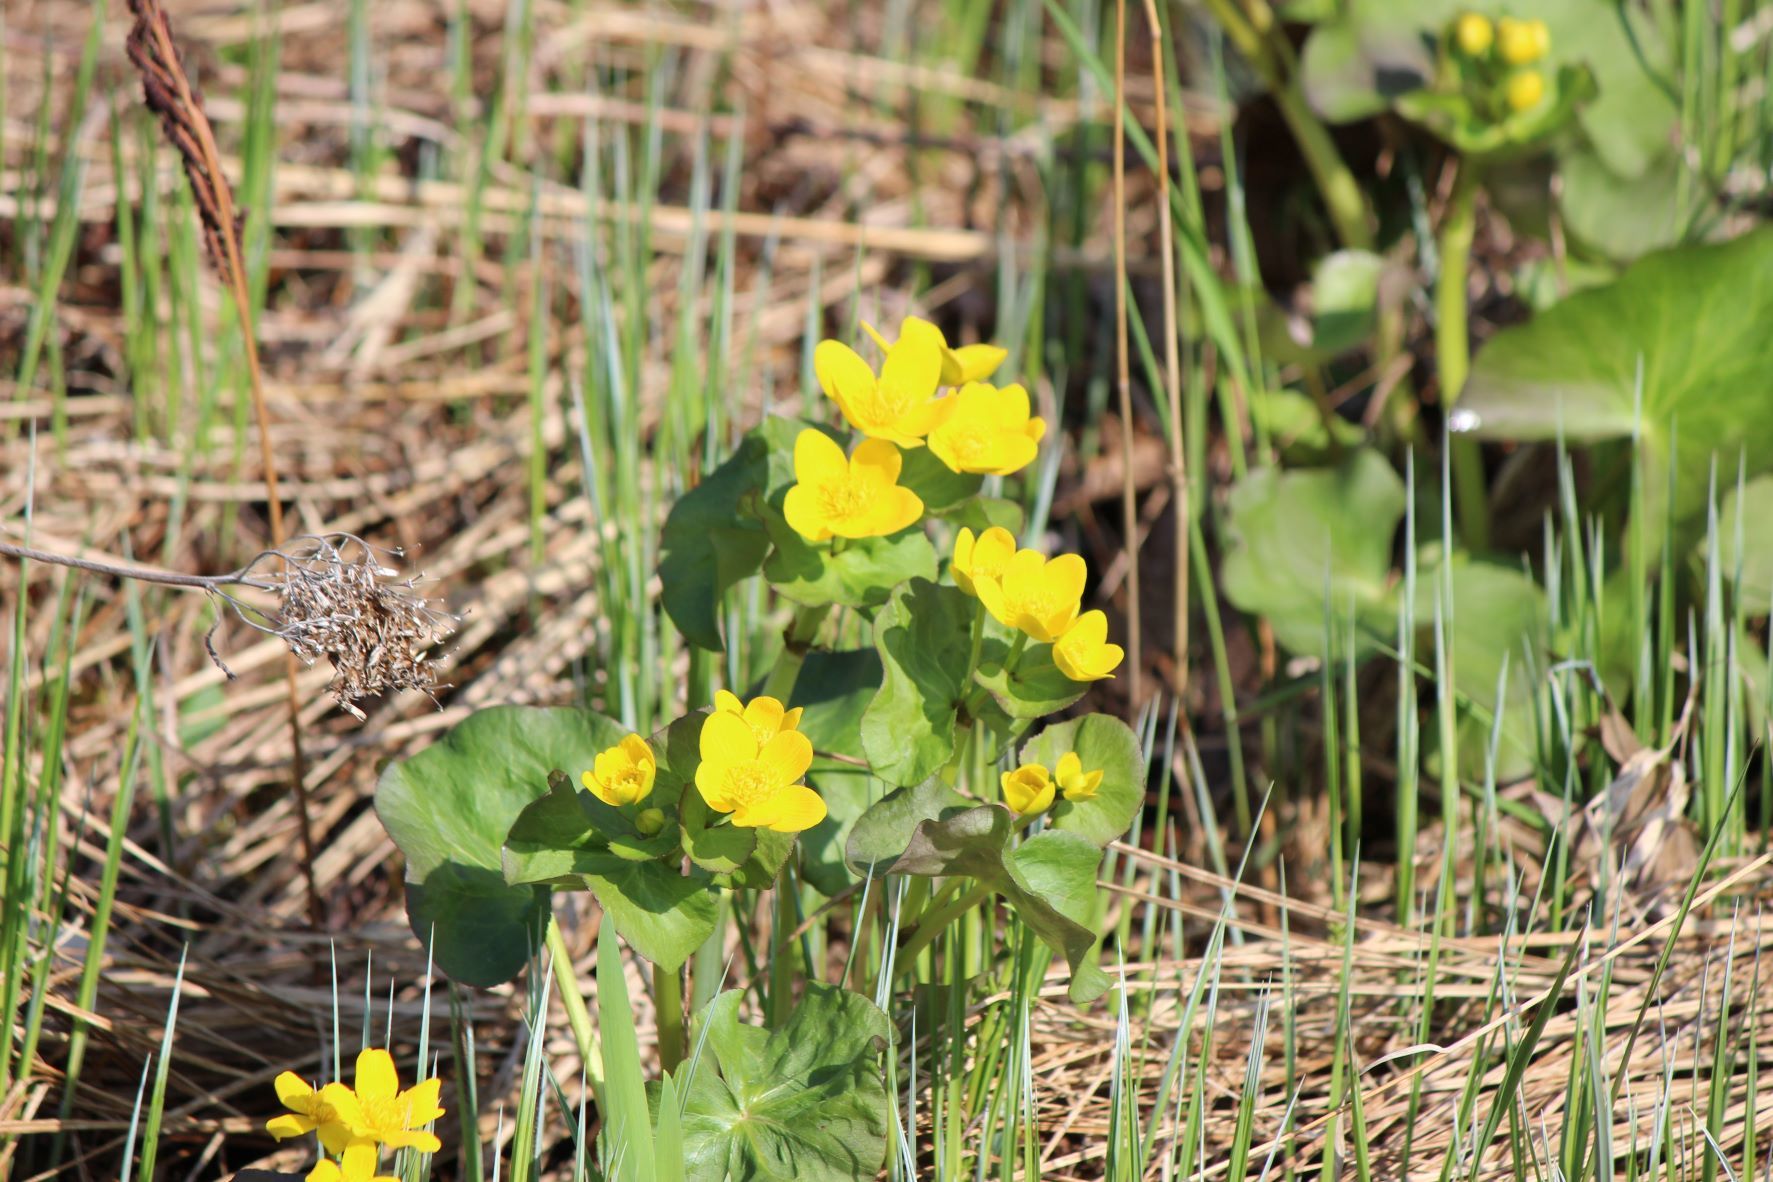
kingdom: Plantae
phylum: Tracheophyta
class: Magnoliopsida
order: Ranunculales
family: Ranunculaceae
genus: Caltha
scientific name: Caltha palustris
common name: Marsh marigold
